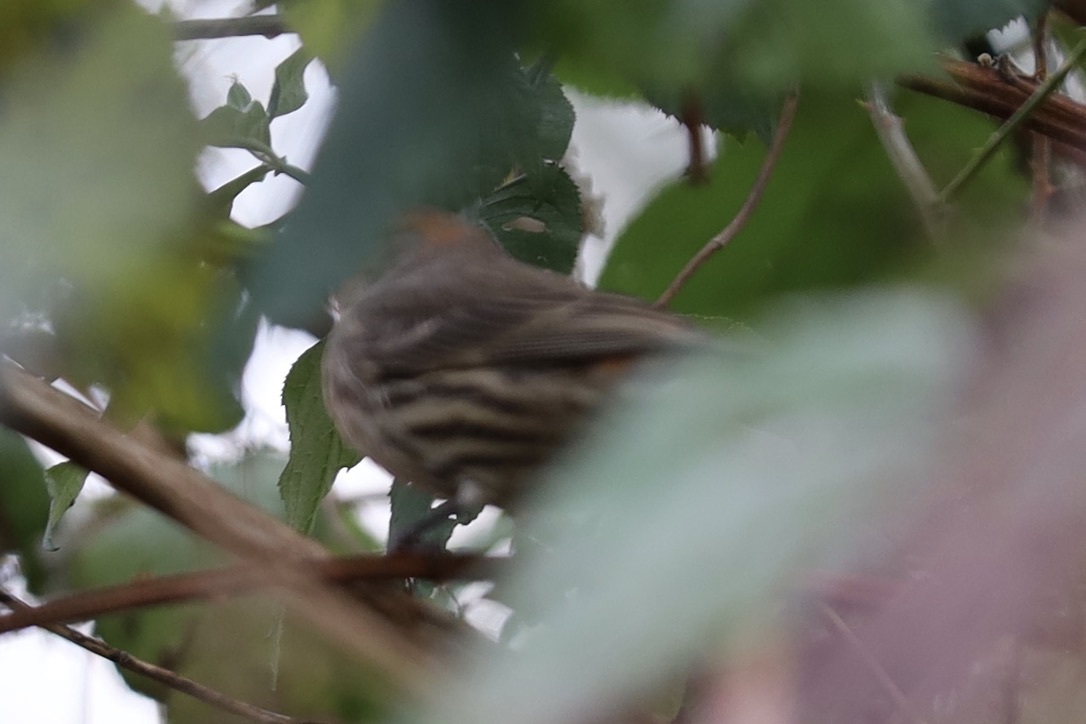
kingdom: Animalia
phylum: Chordata
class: Aves
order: Passeriformes
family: Fringillidae
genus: Haemorhous
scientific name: Haemorhous mexicanus
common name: House finch
